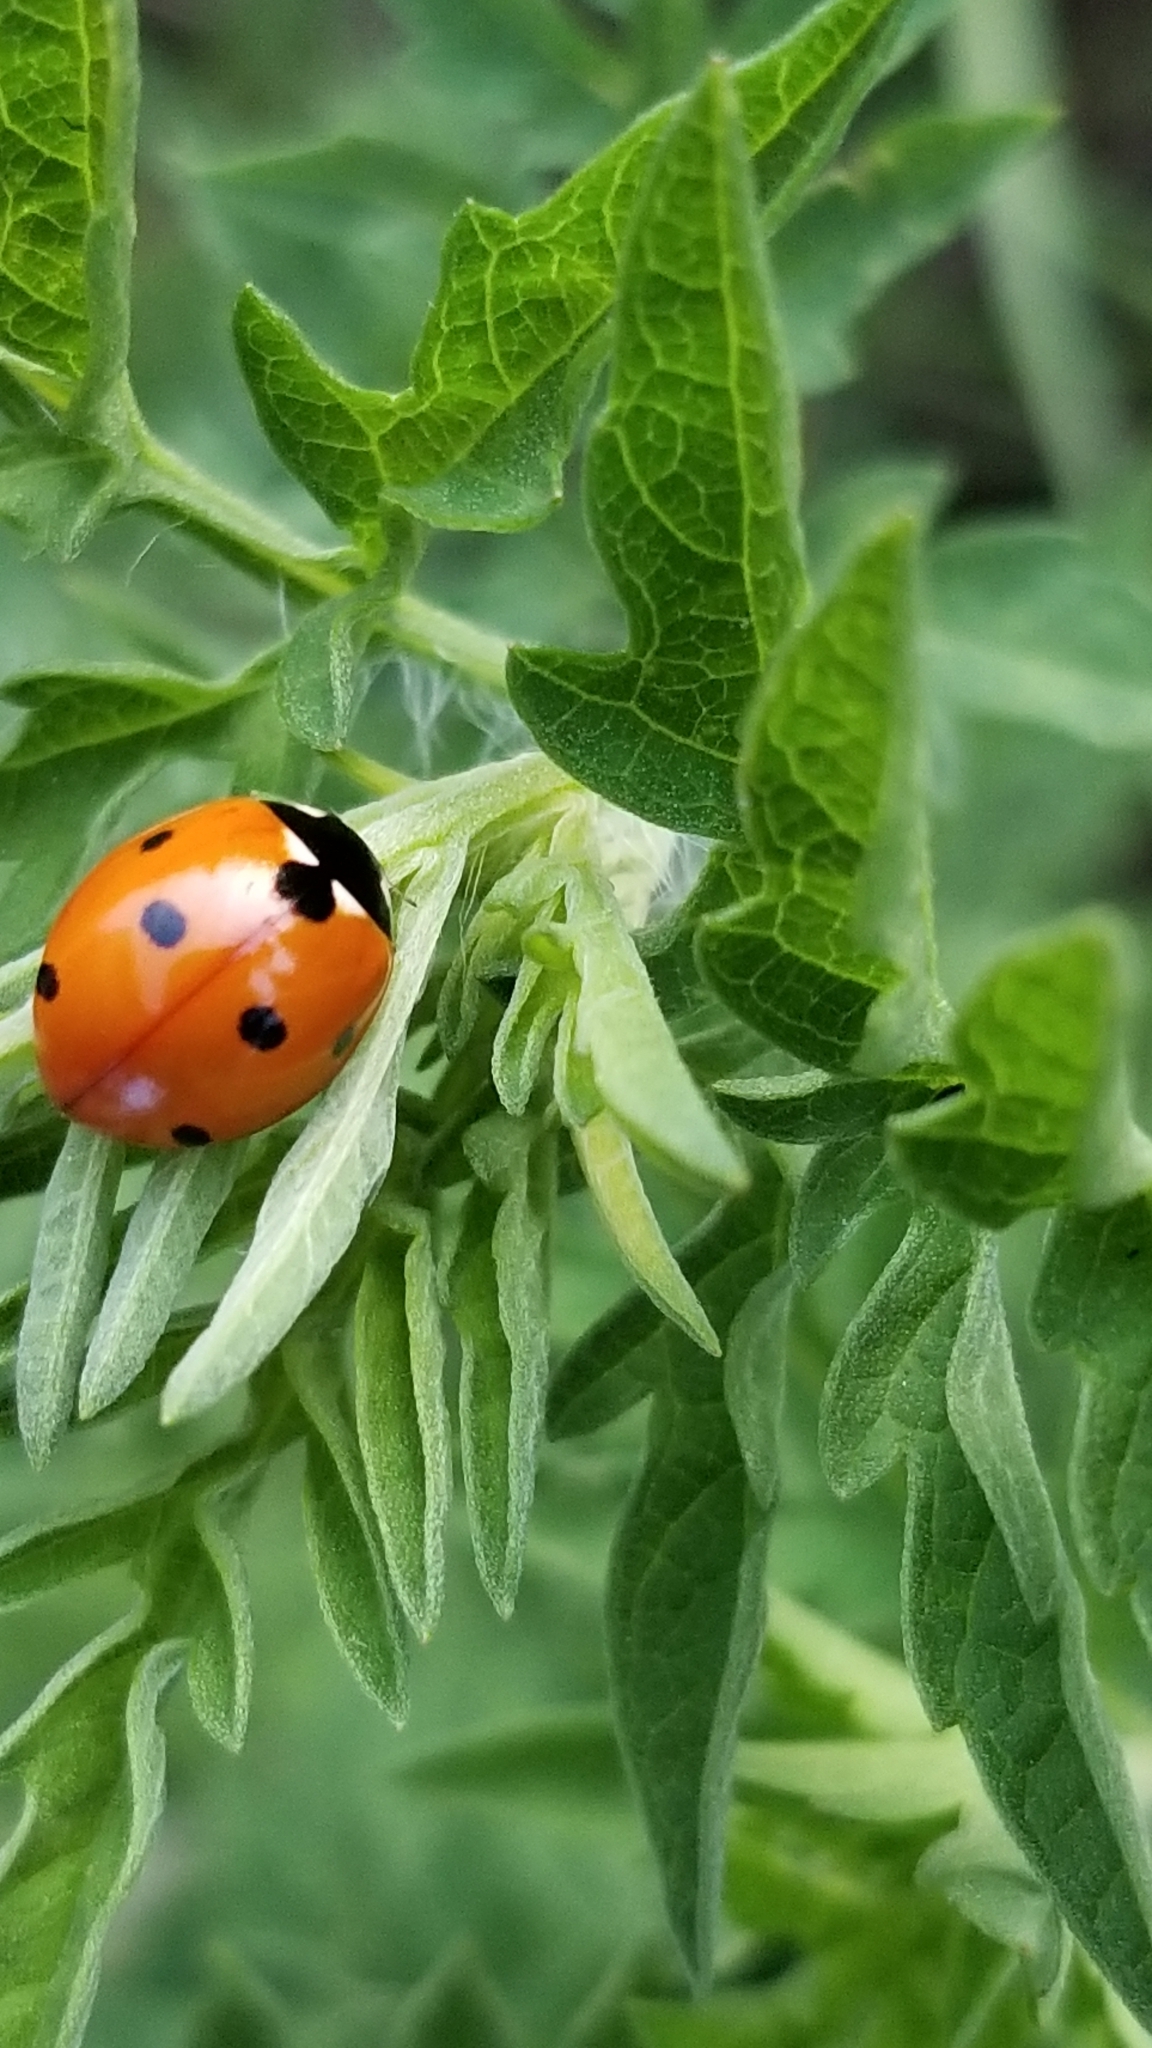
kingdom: Animalia
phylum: Arthropoda
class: Insecta
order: Coleoptera
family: Coccinellidae
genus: Coccinella
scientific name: Coccinella septempunctata
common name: Sevenspotted lady beetle
